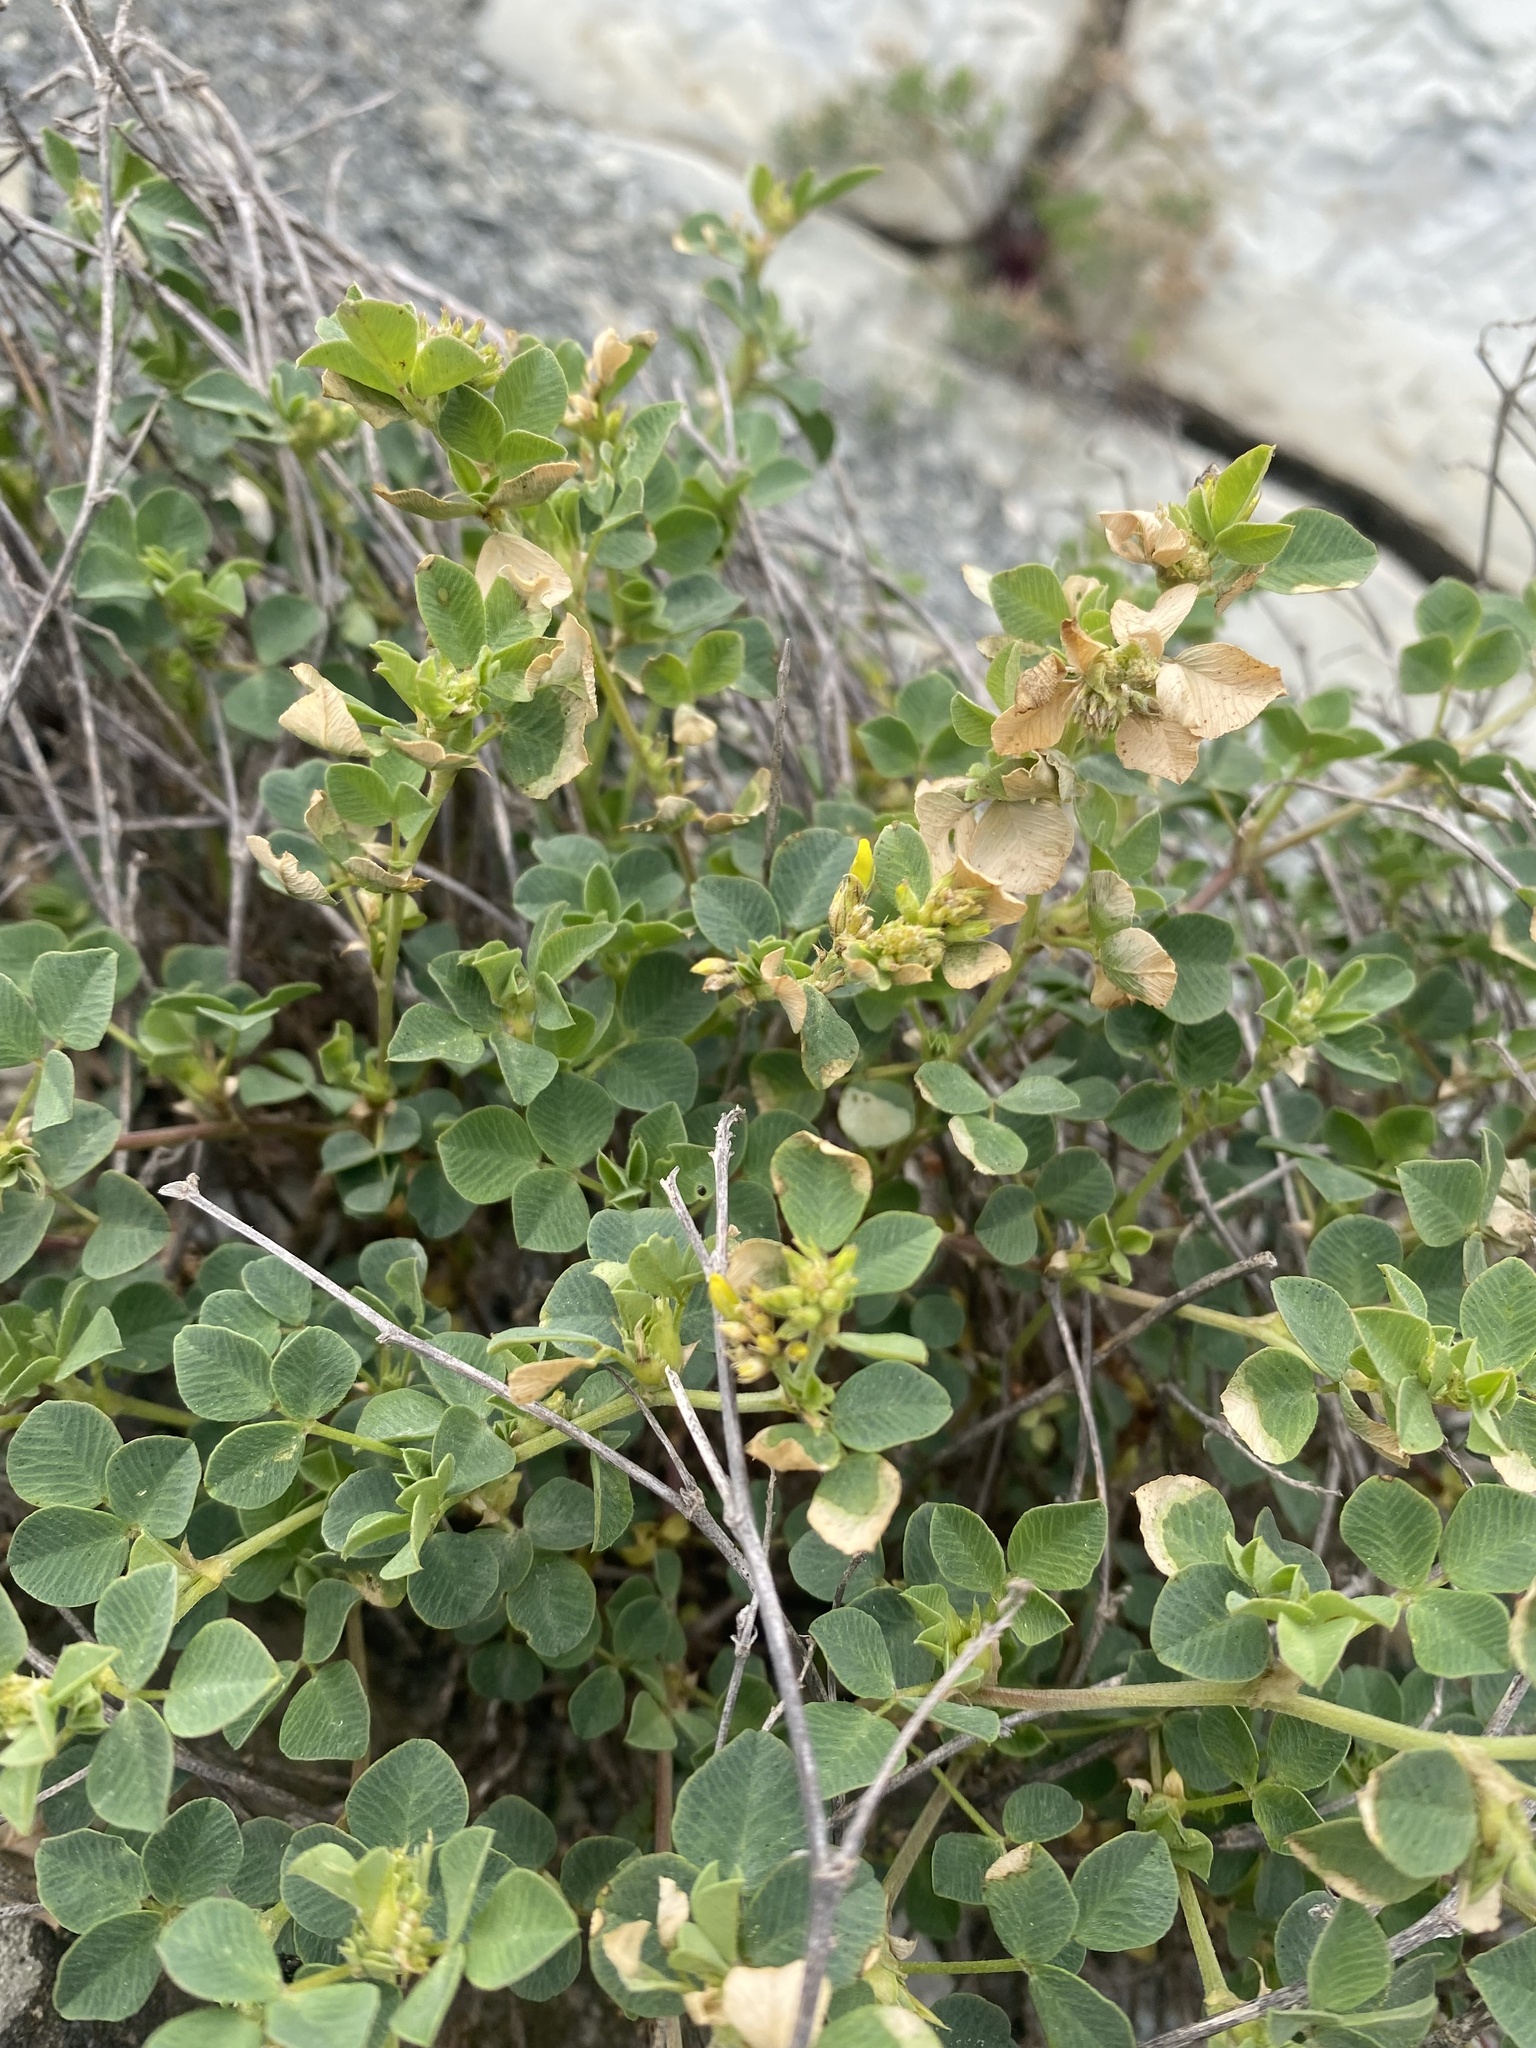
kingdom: Plantae
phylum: Tracheophyta
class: Magnoliopsida
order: Fabales
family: Fabaceae
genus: Medicago
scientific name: Medicago cretacea
